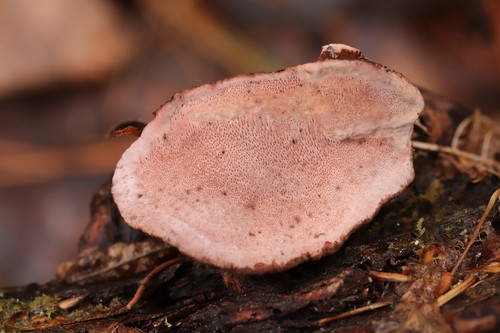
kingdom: Fungi
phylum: Basidiomycota
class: Agaricomycetes
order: Polyporales
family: Fomitopsidaceae
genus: Rhodofomes
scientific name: Rhodofomes roseus
